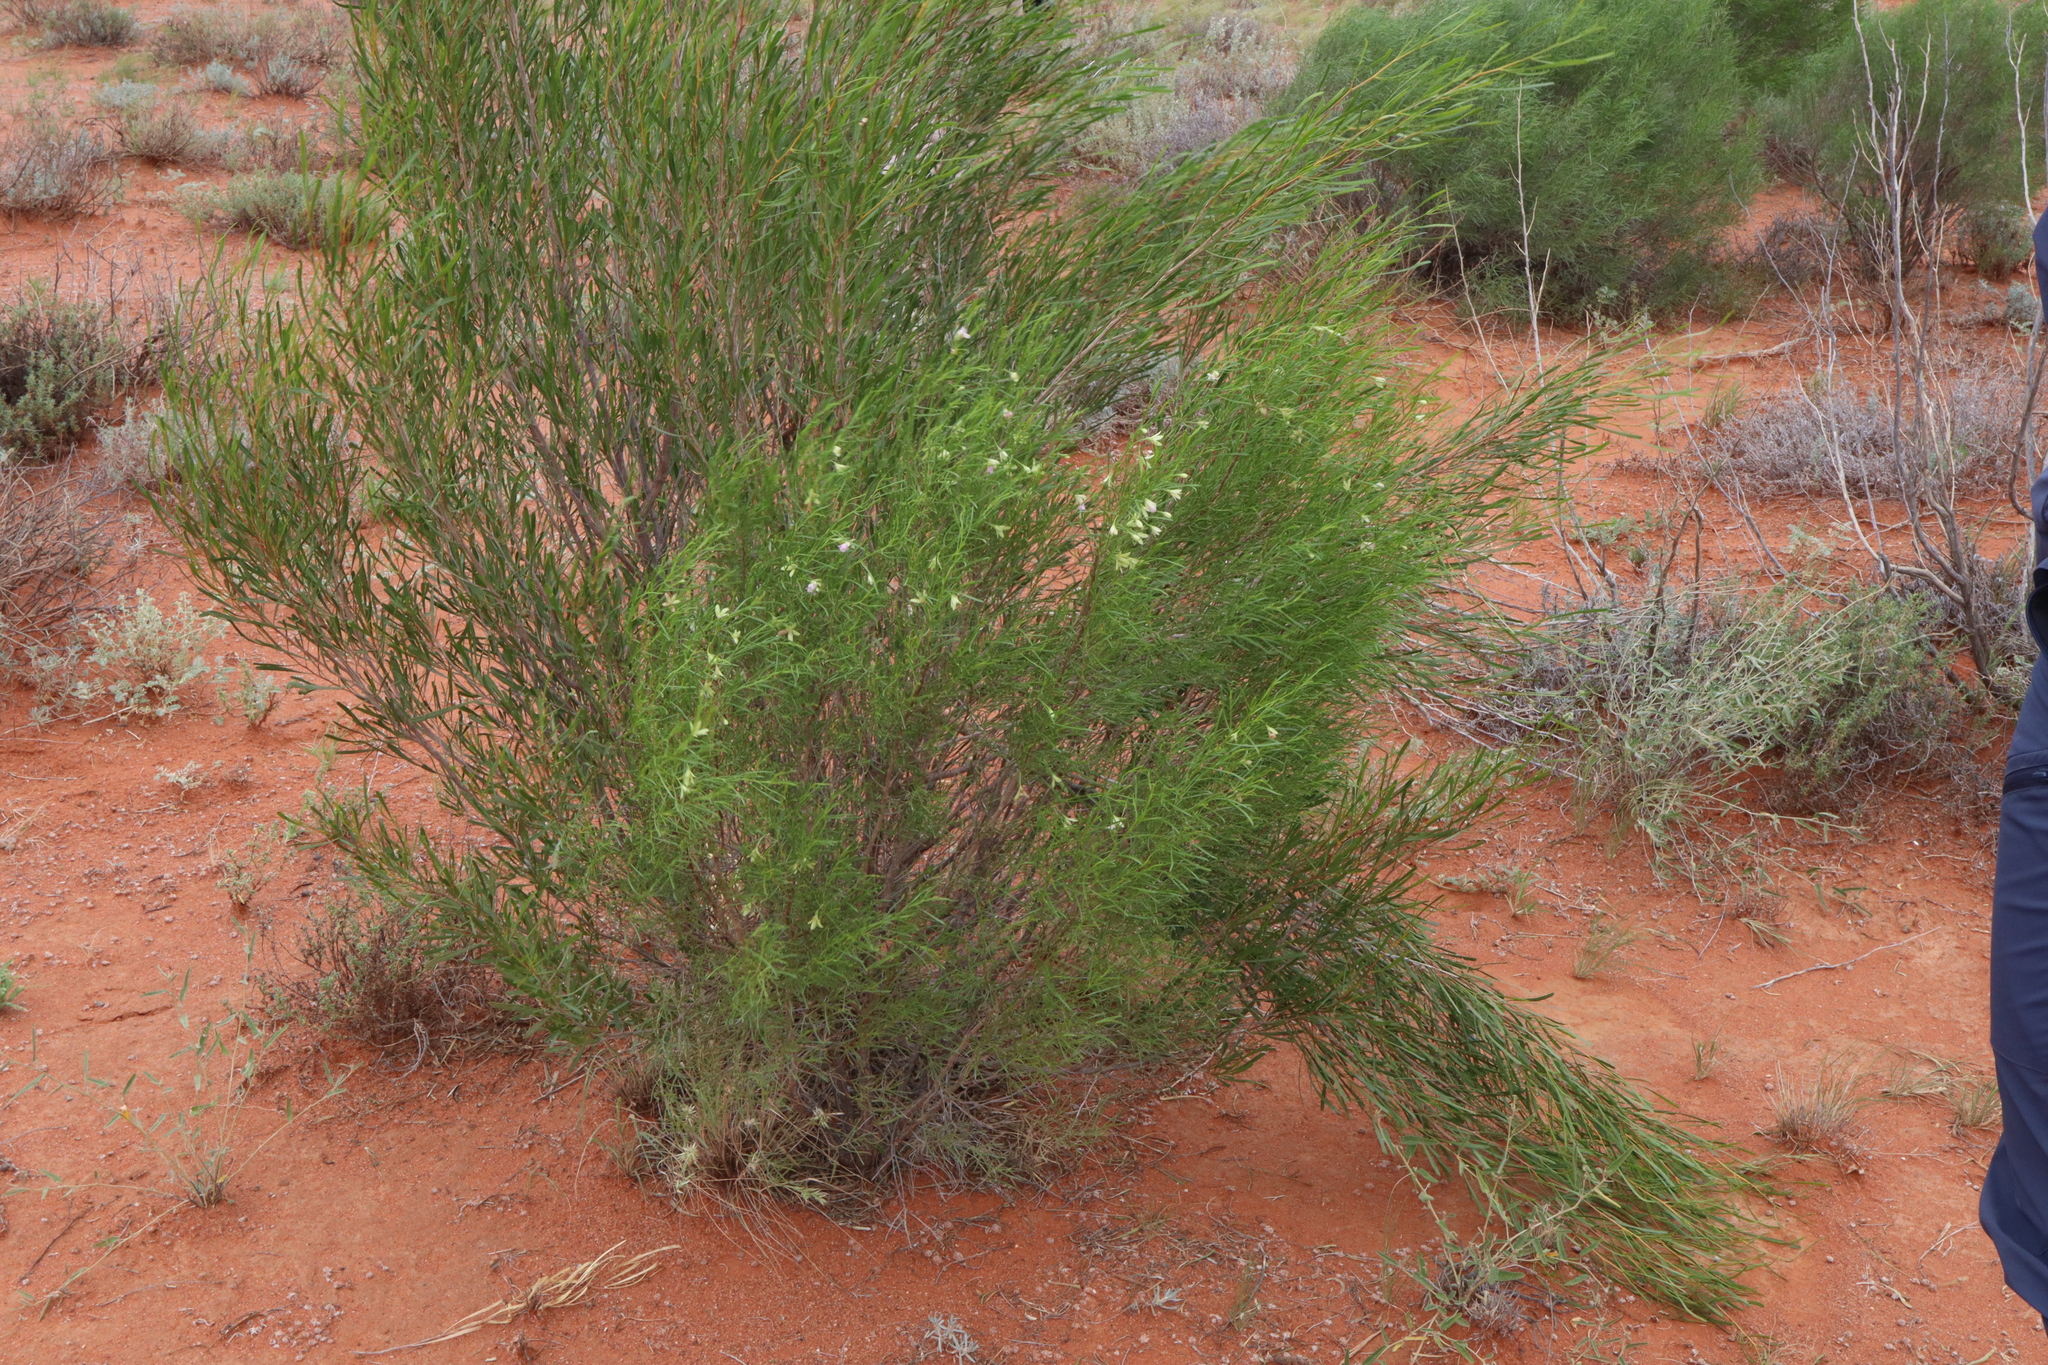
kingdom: Plantae
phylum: Tracheophyta
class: Magnoliopsida
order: Lamiales
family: Scrophulariaceae
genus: Eremophila
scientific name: Eremophila sturtii
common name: Narrow-leaf emubush
